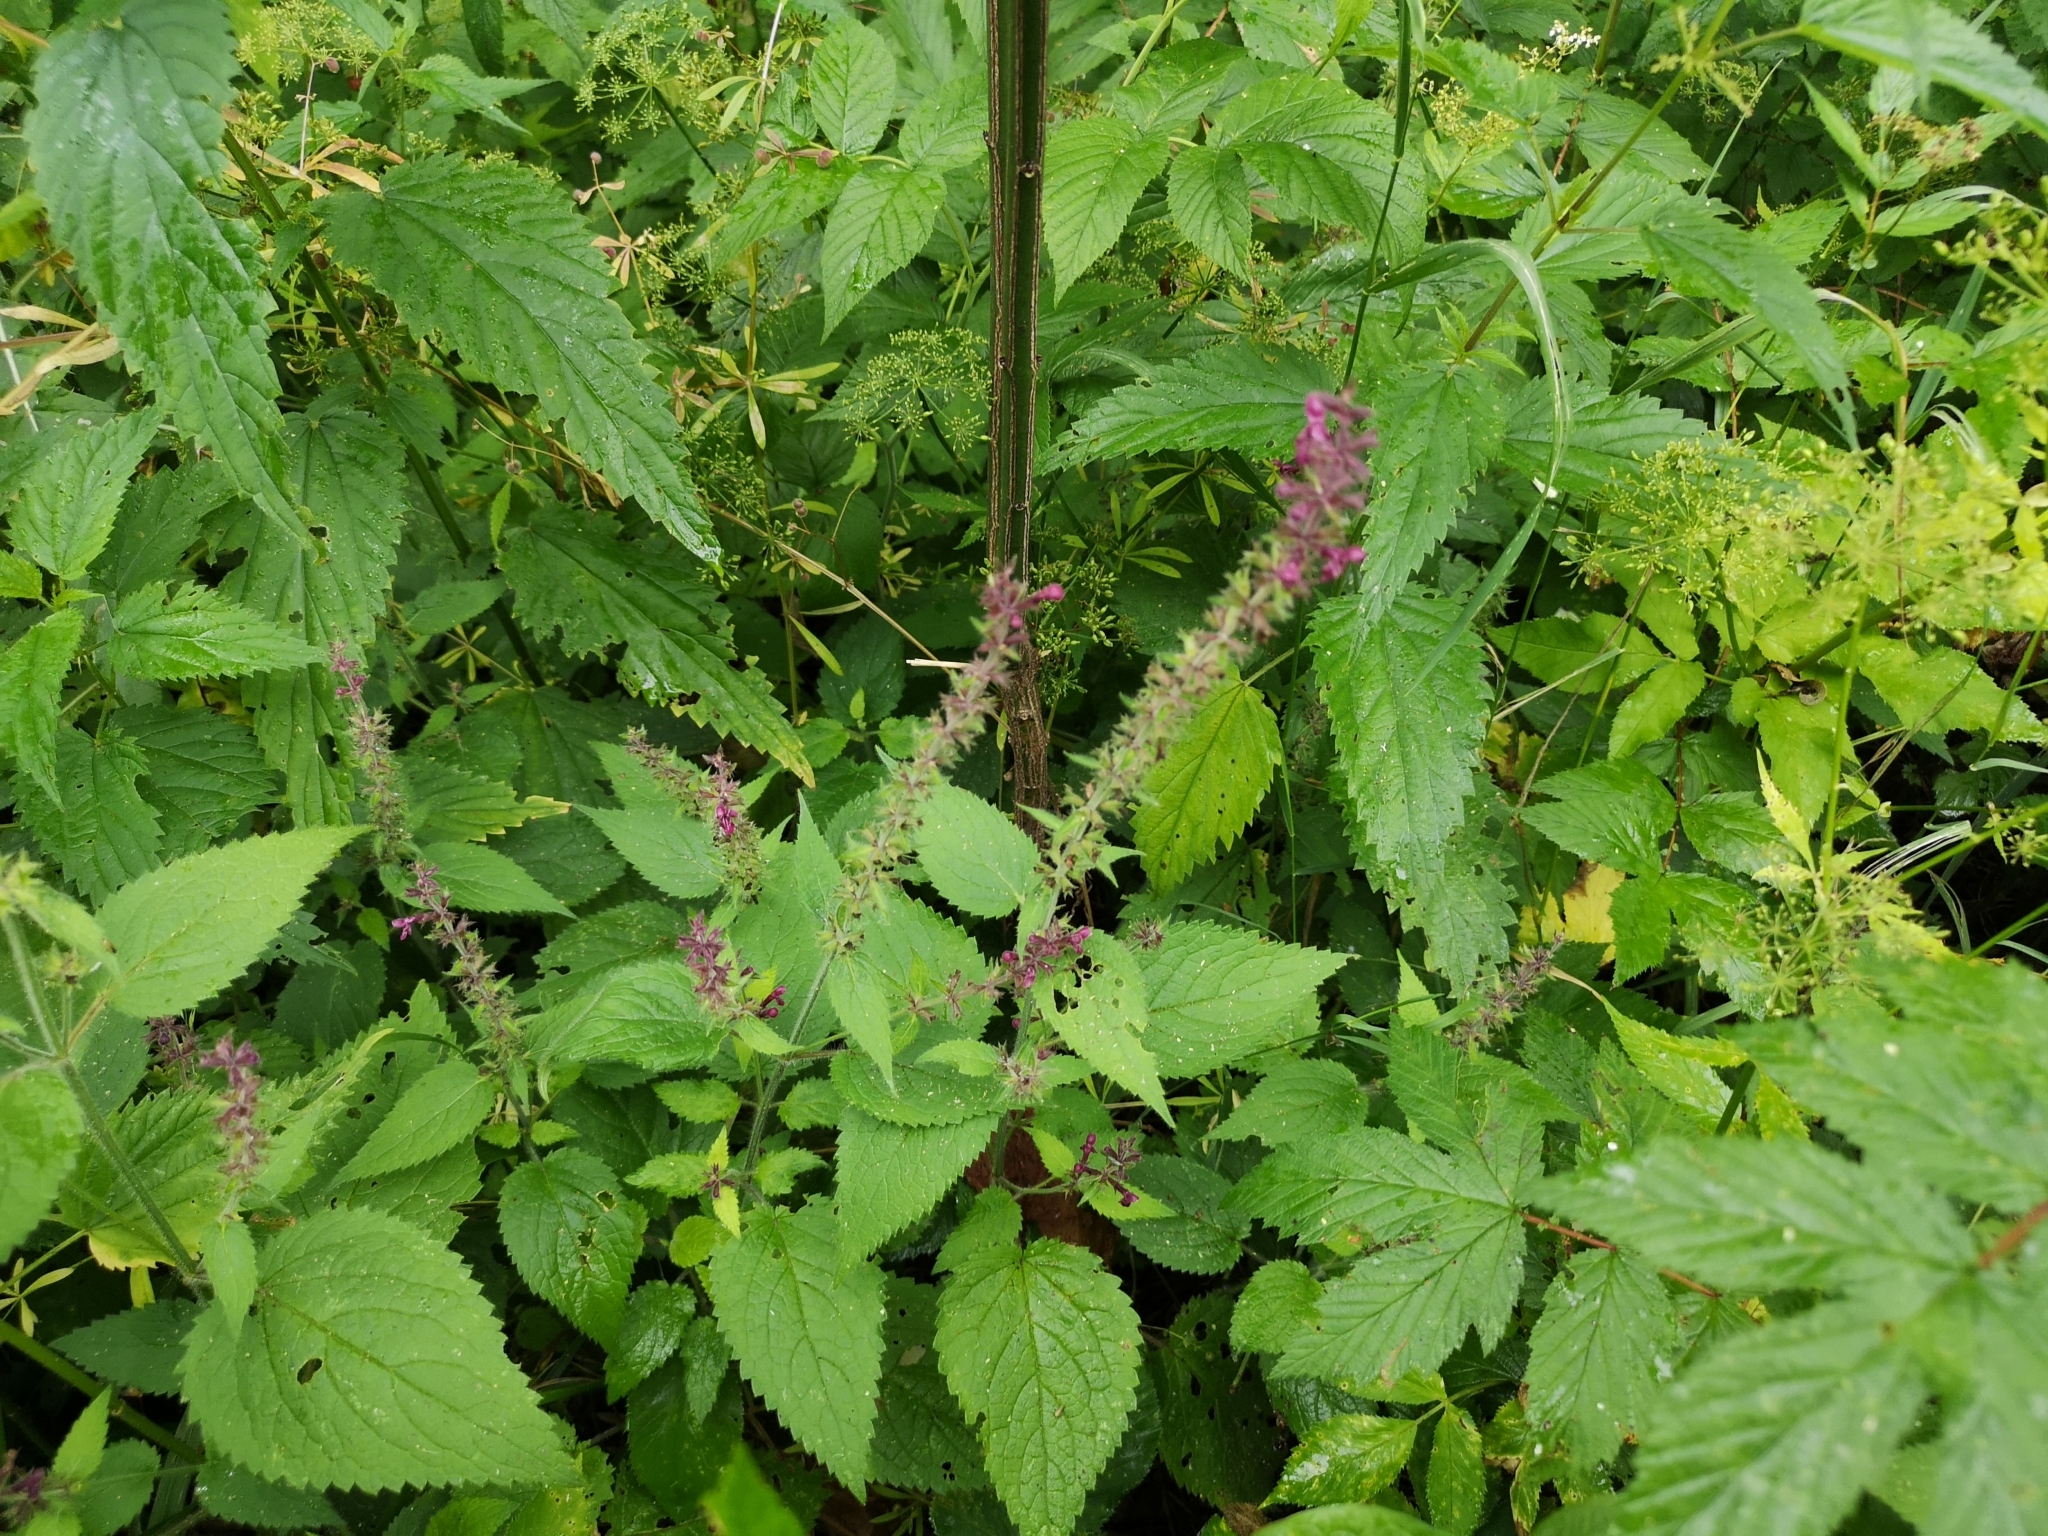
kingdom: Plantae
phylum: Tracheophyta
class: Magnoliopsida
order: Lamiales
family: Lamiaceae
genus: Stachys
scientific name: Stachys sylvatica
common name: Hedge woundwort
